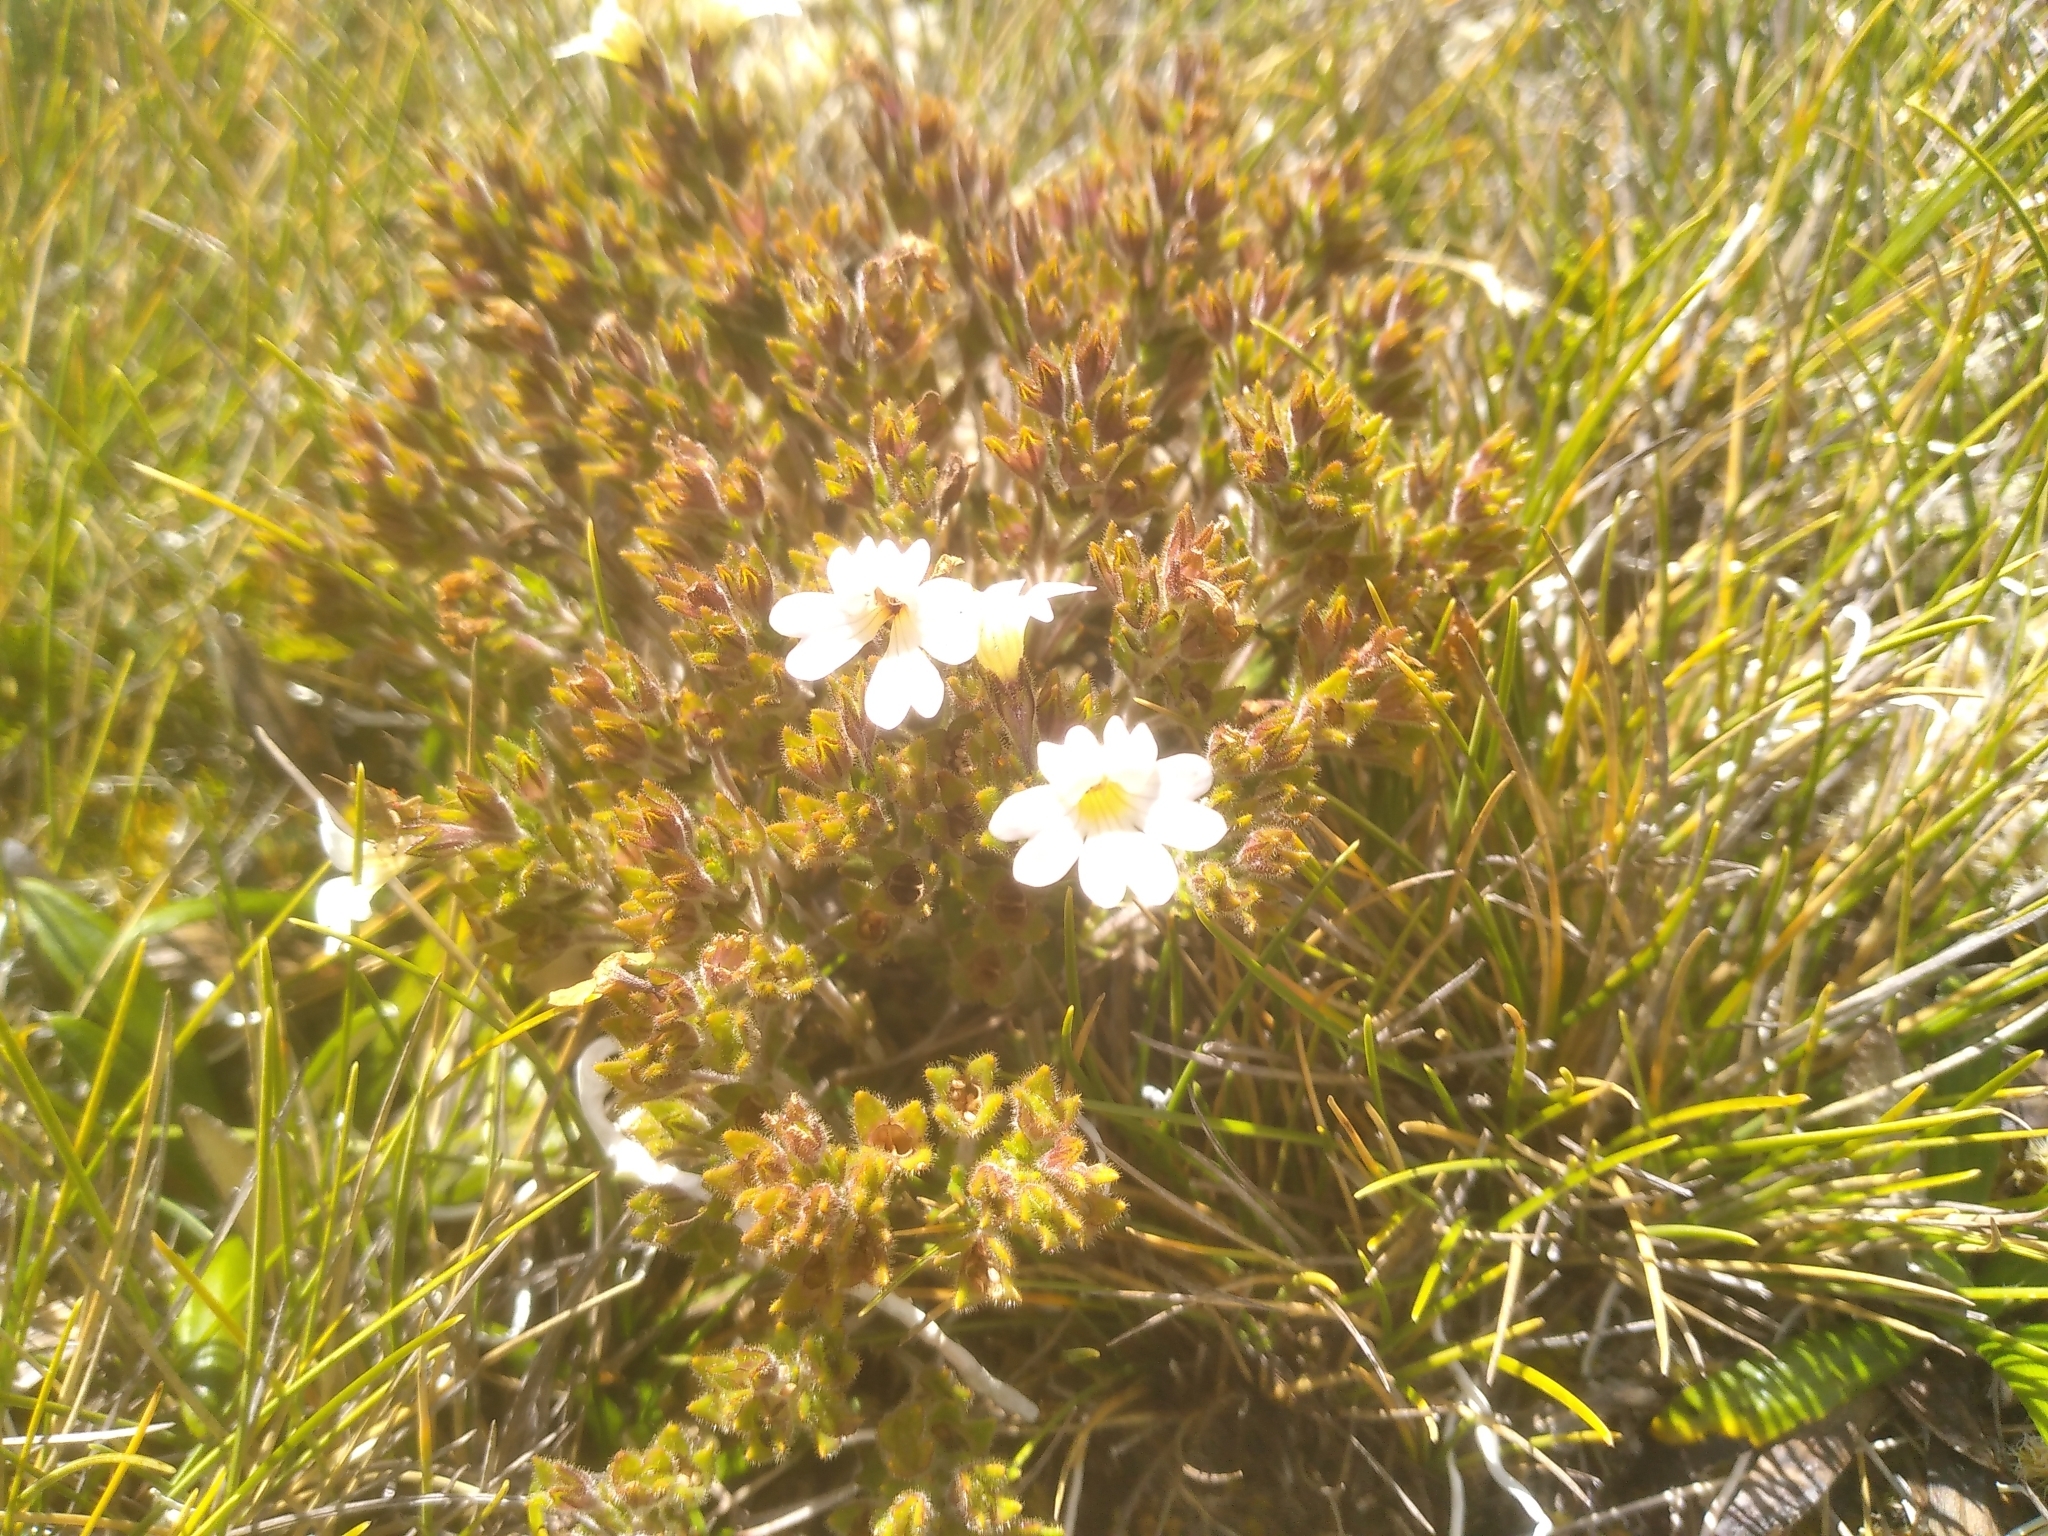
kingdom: Plantae
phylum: Tracheophyta
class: Magnoliopsida
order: Lamiales
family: Orobanchaceae
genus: Euphrasia
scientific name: Euphrasia townsonii
